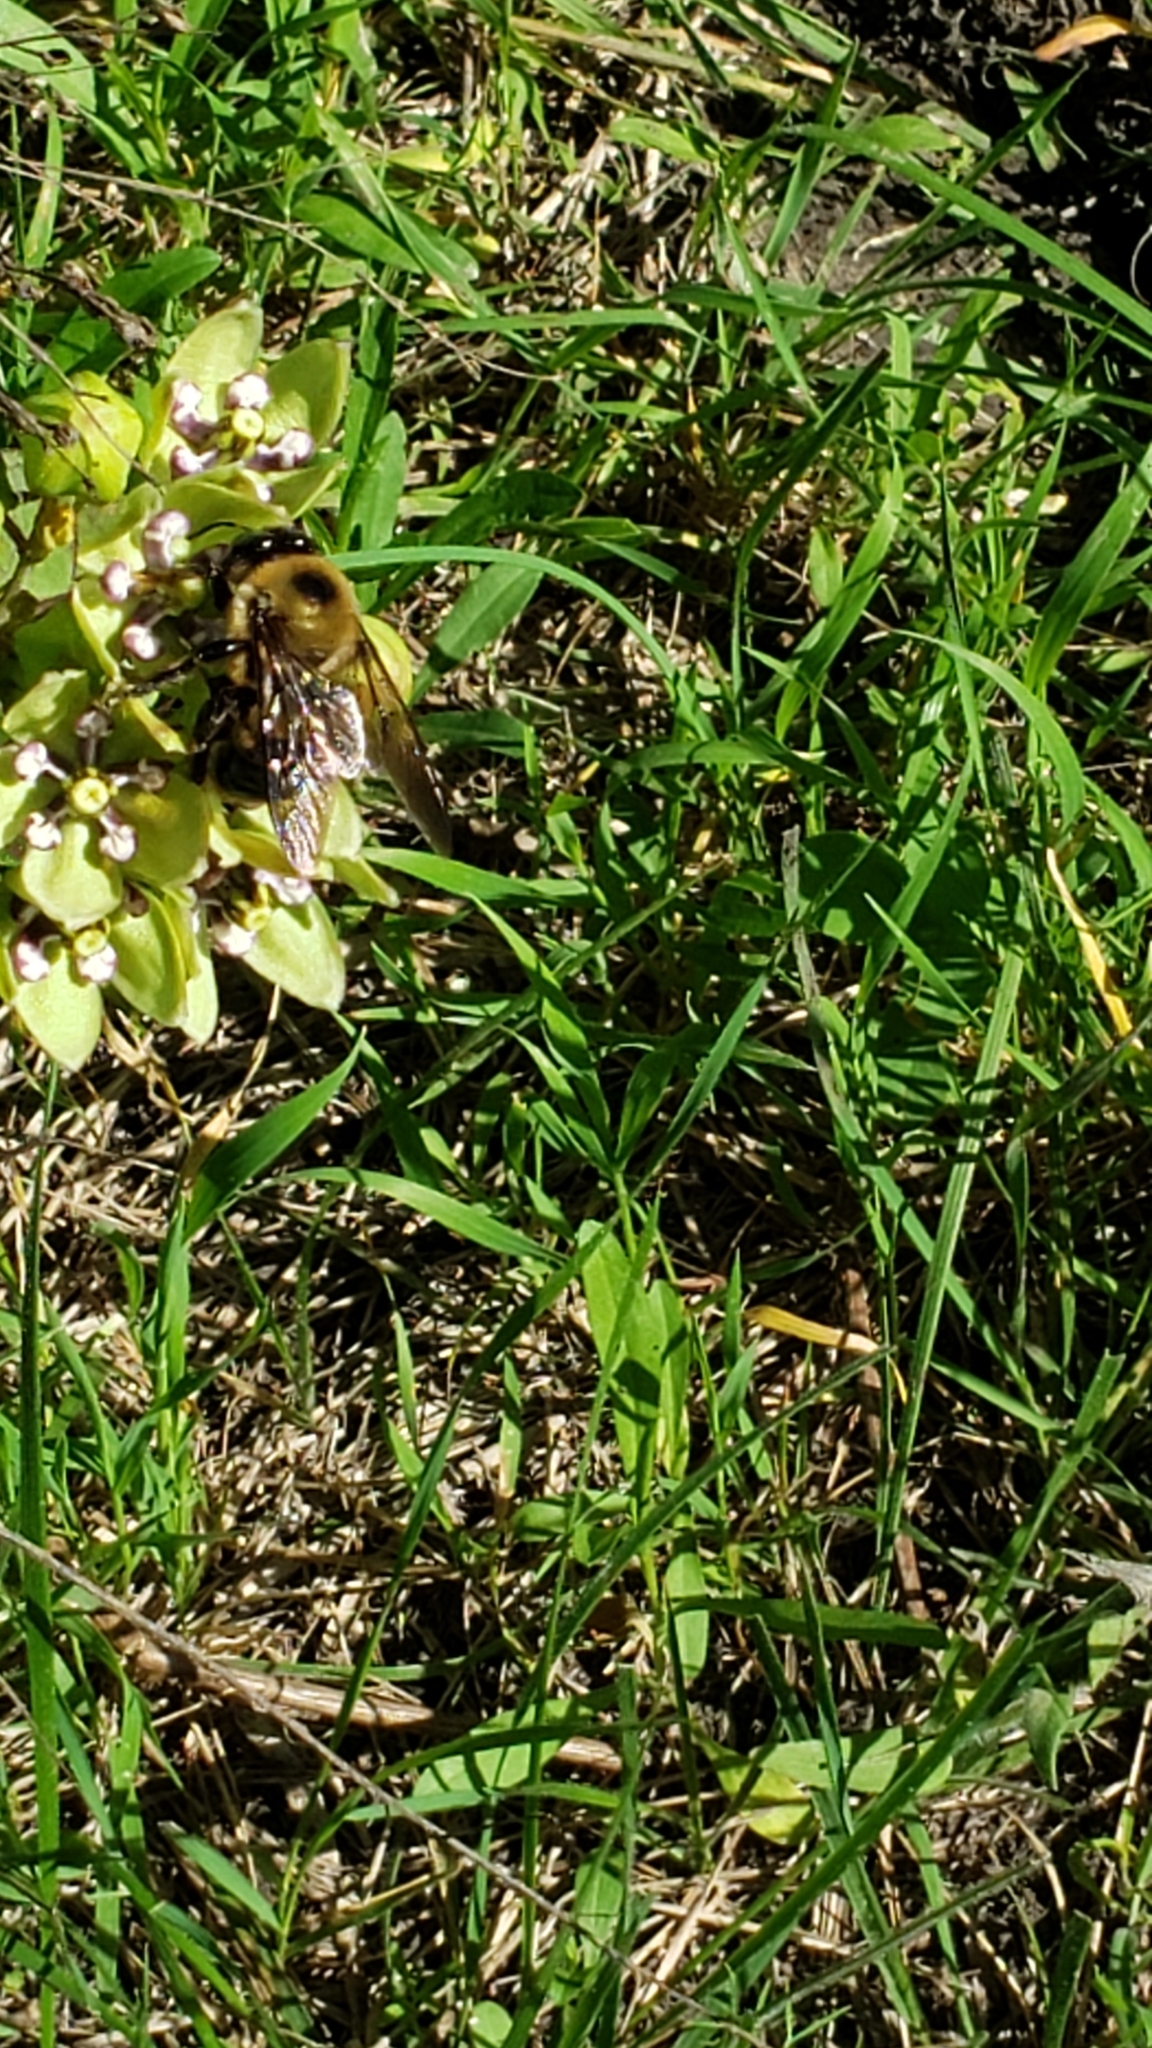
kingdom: Animalia
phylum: Arthropoda
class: Insecta
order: Hymenoptera
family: Apidae
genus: Xylocopa
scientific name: Xylocopa virginica
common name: Carpenter bee
